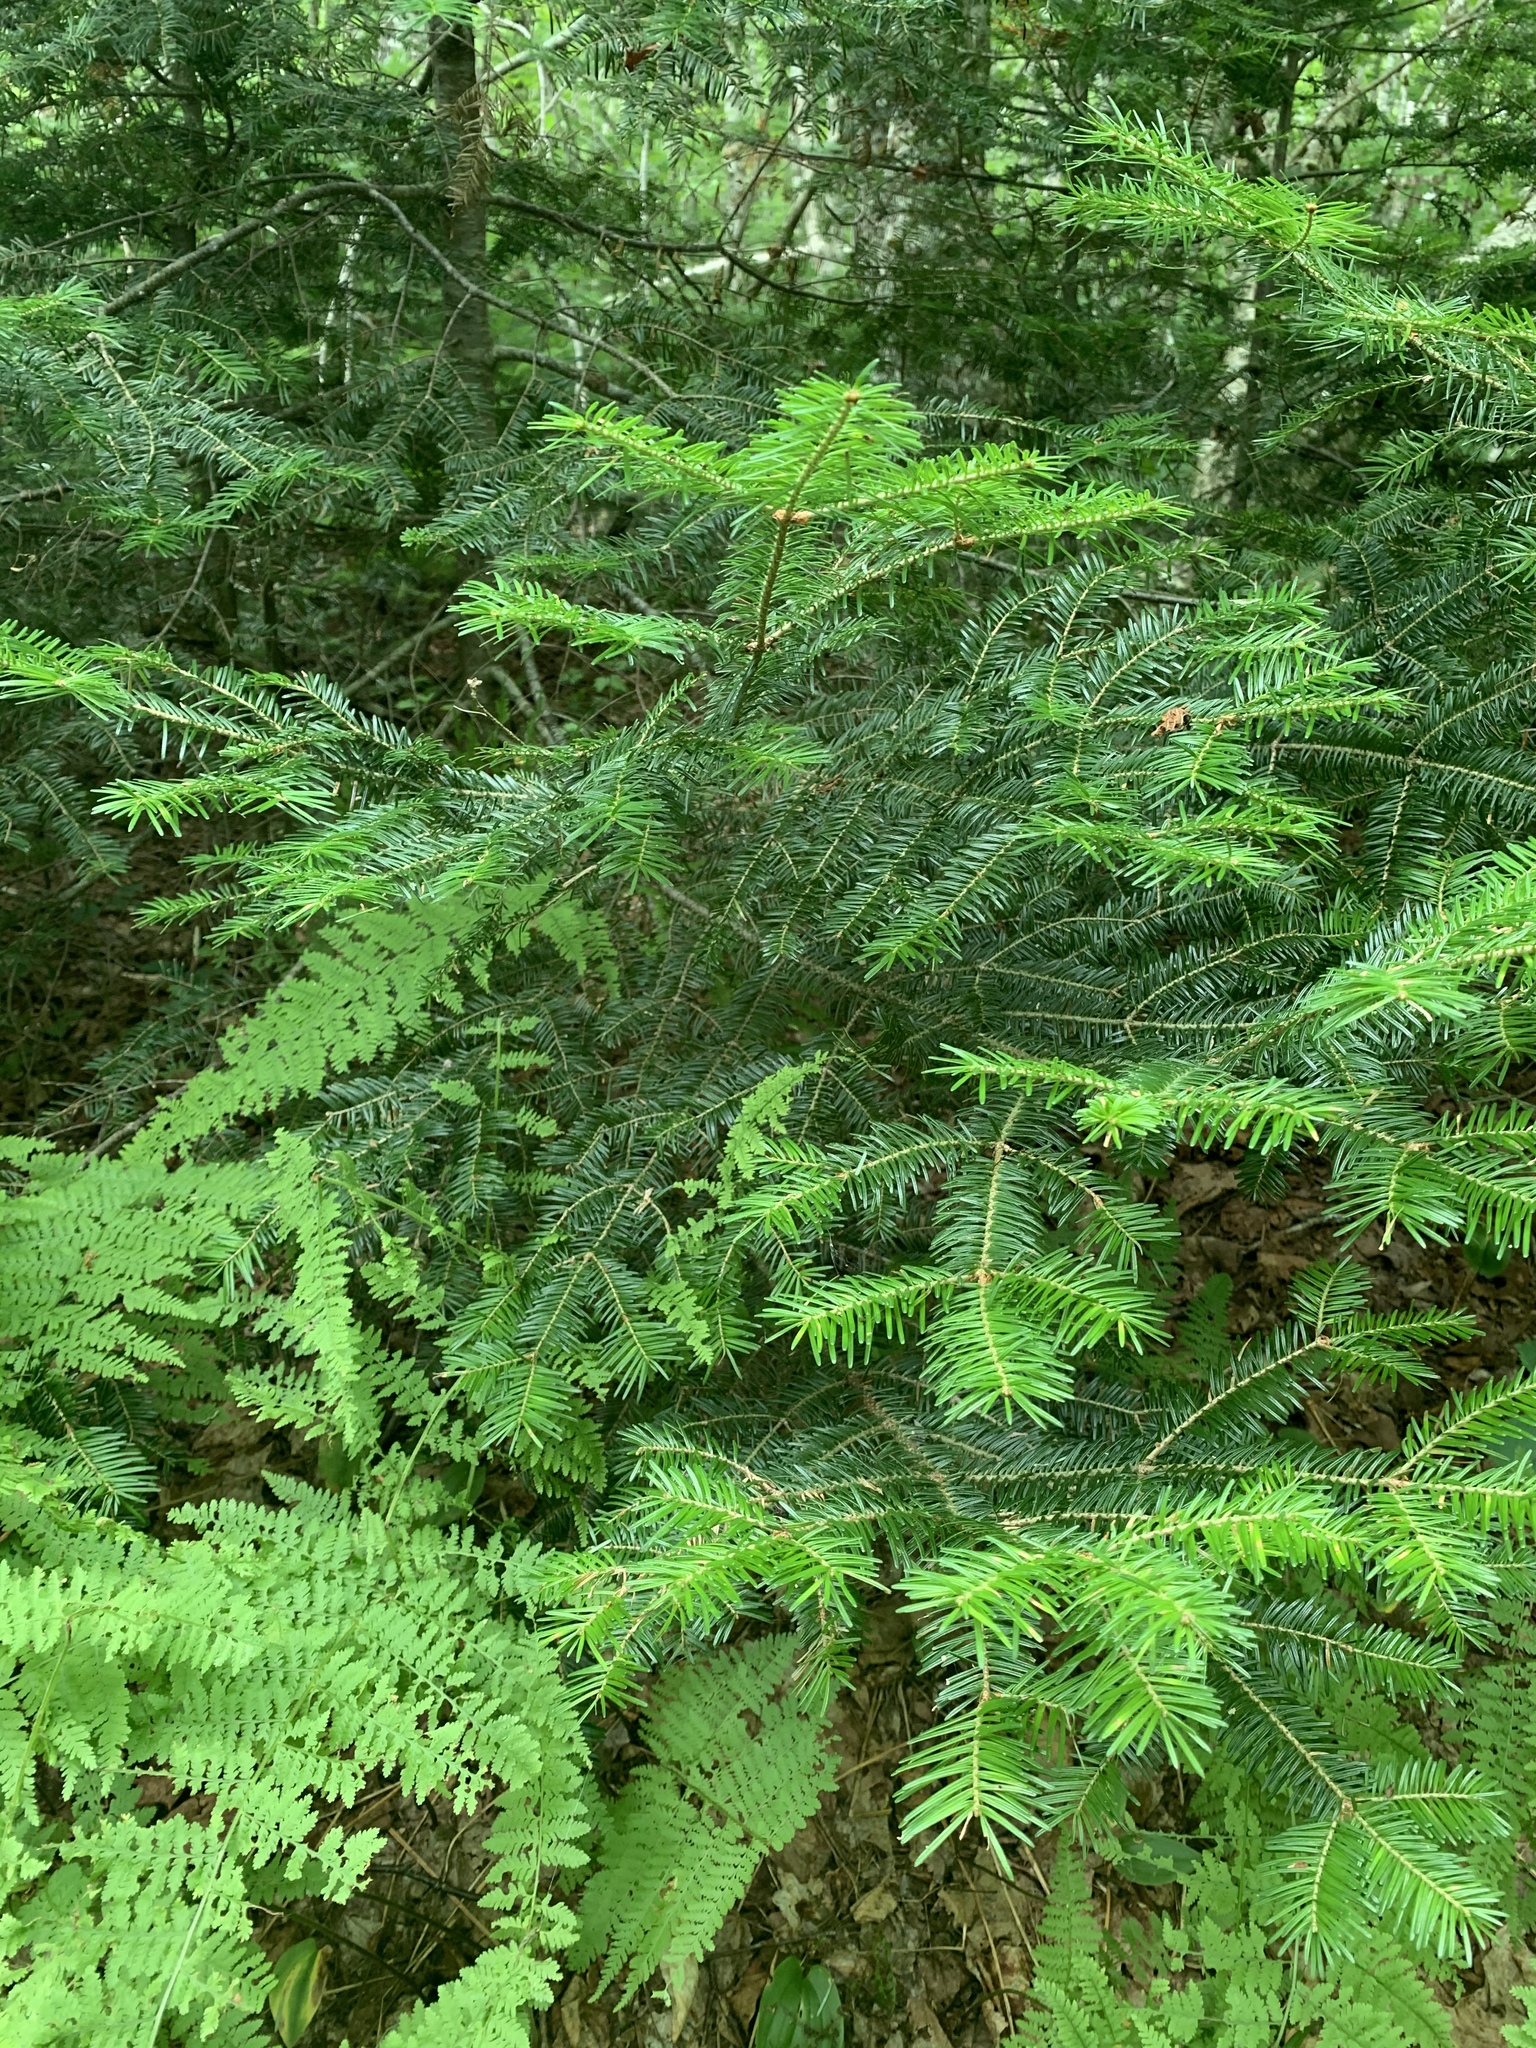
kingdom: Plantae
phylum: Tracheophyta
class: Pinopsida
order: Pinales
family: Pinaceae
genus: Abies
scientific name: Abies balsamea
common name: Balsam fir
